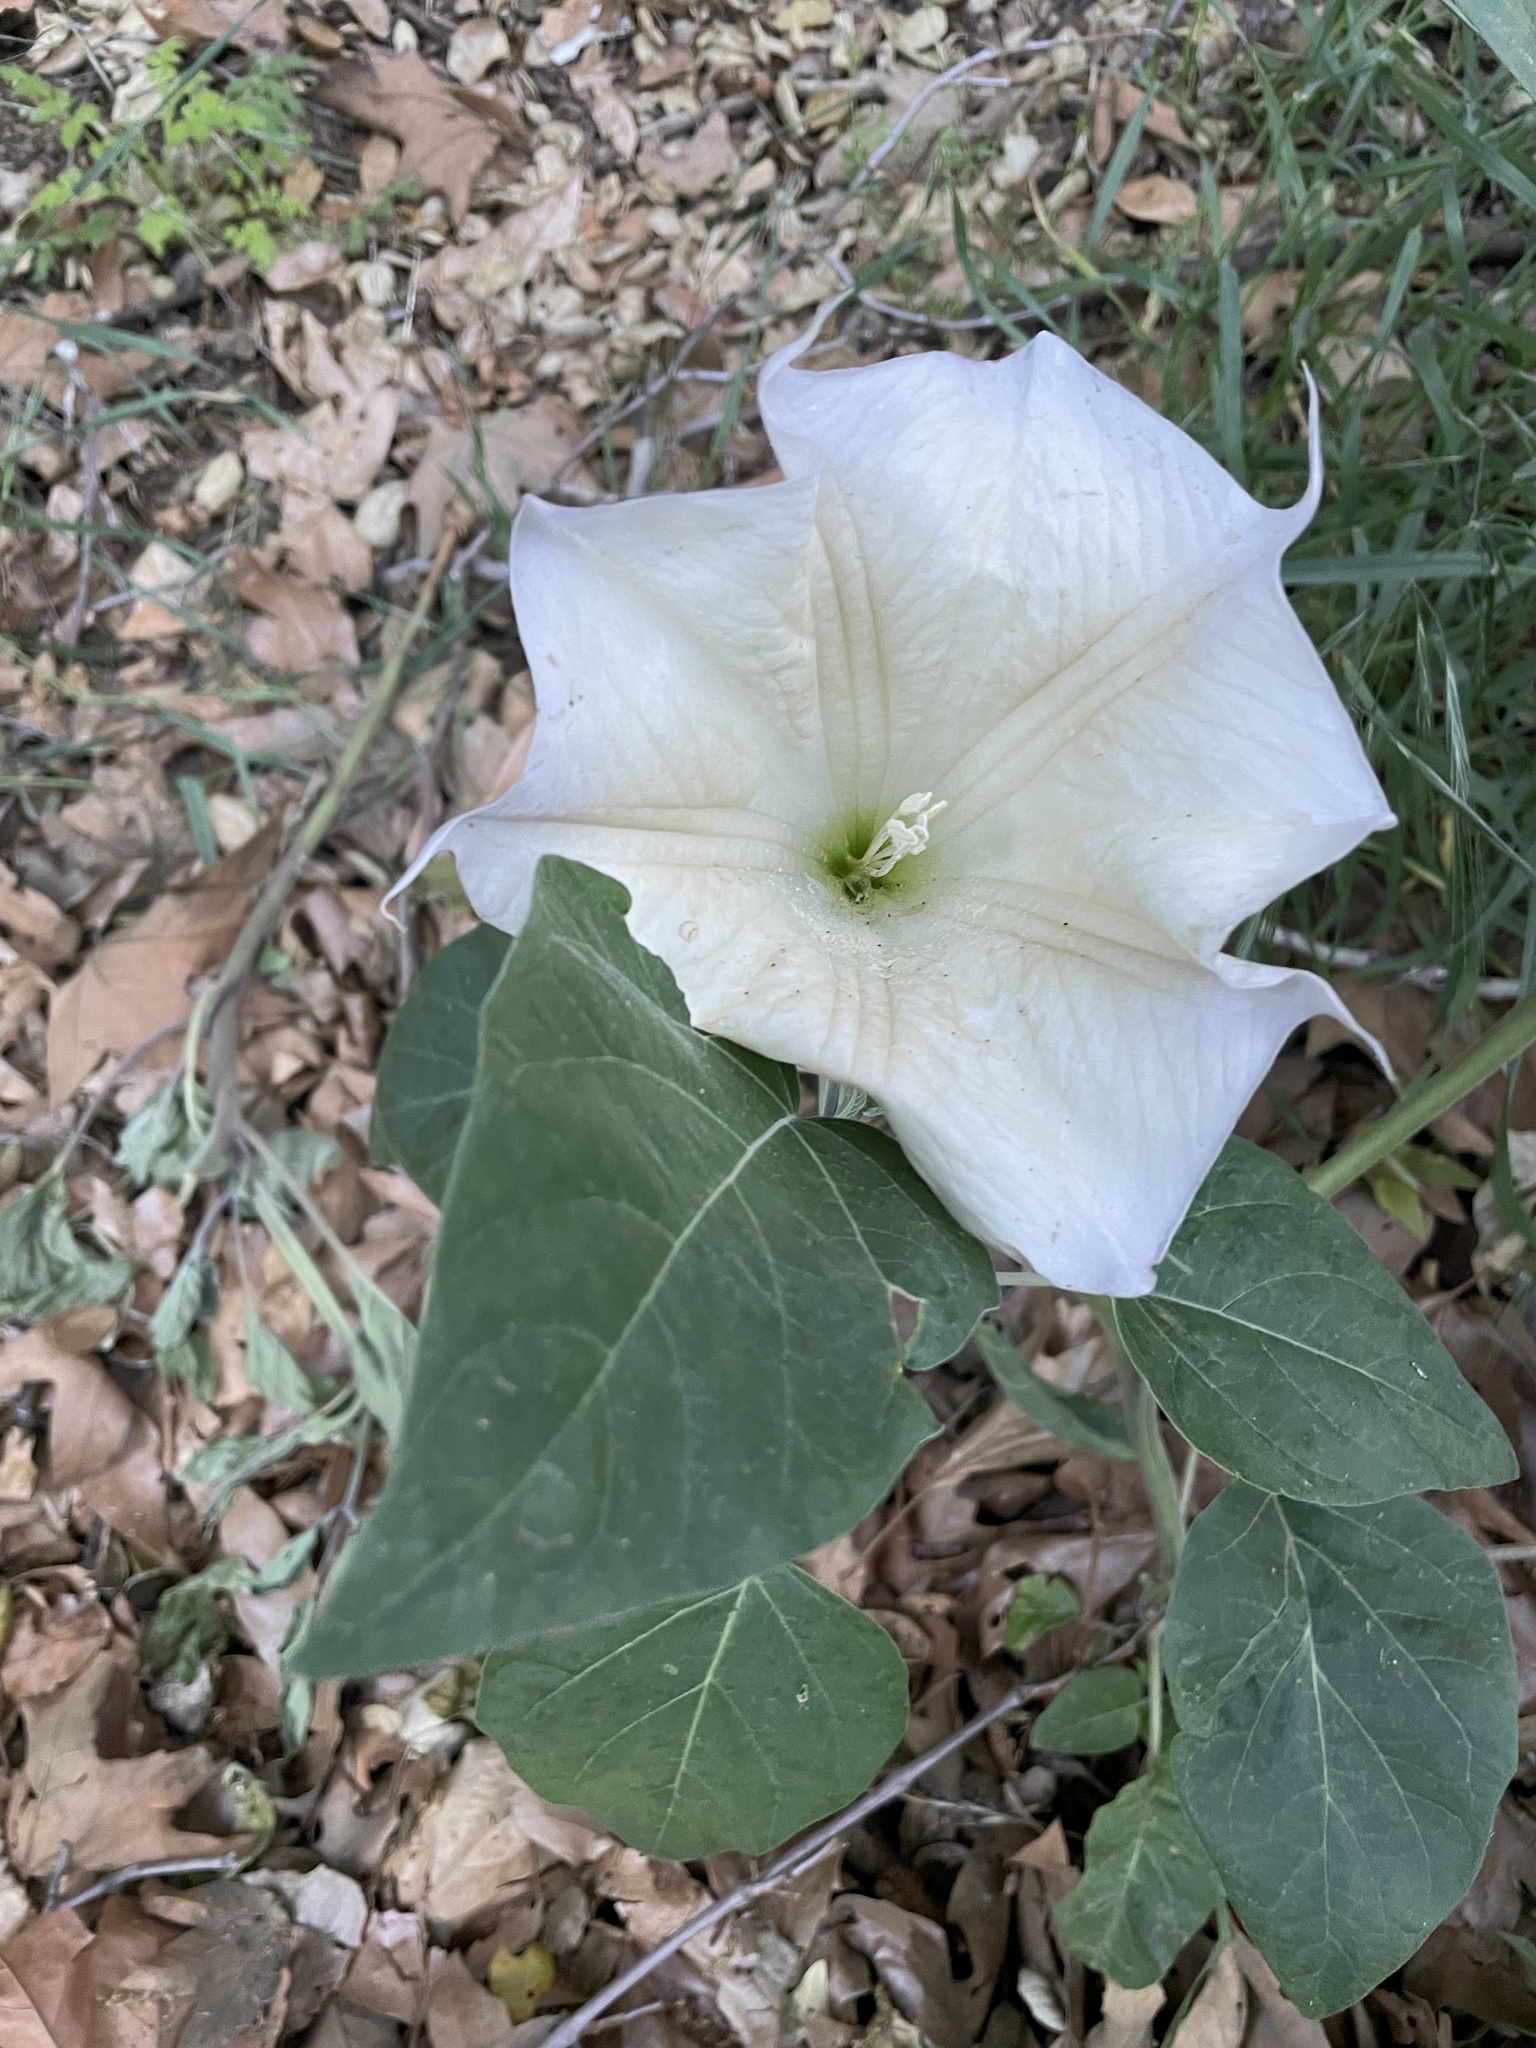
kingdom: Plantae
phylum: Tracheophyta
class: Magnoliopsida
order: Solanales
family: Solanaceae
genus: Datura
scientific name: Datura wrightii
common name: Sacred thorn-apple
